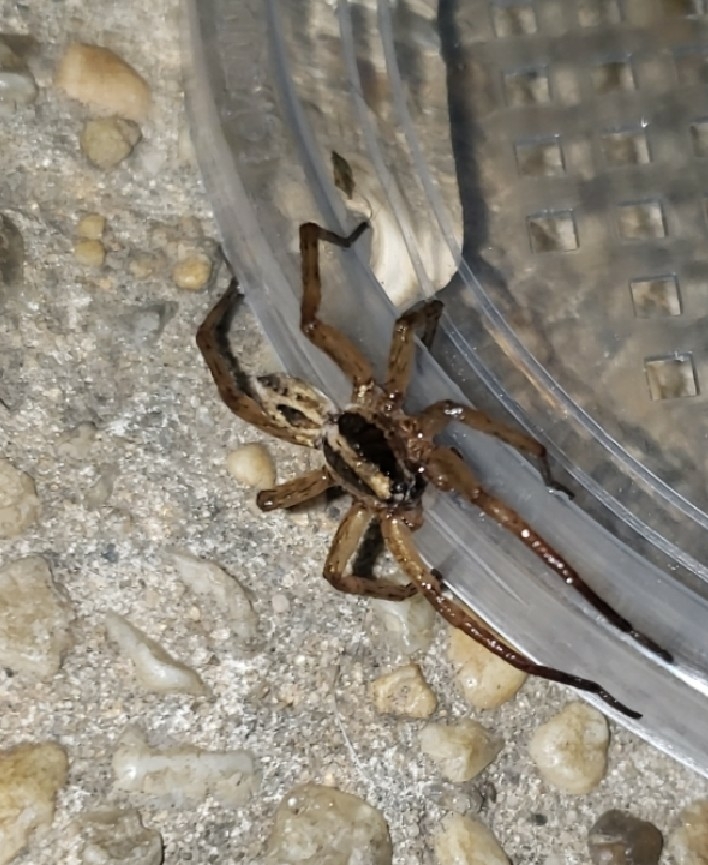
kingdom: Animalia
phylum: Arthropoda
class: Arachnida
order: Araneae
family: Lycosidae
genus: Schizocosa
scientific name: Schizocosa avida
